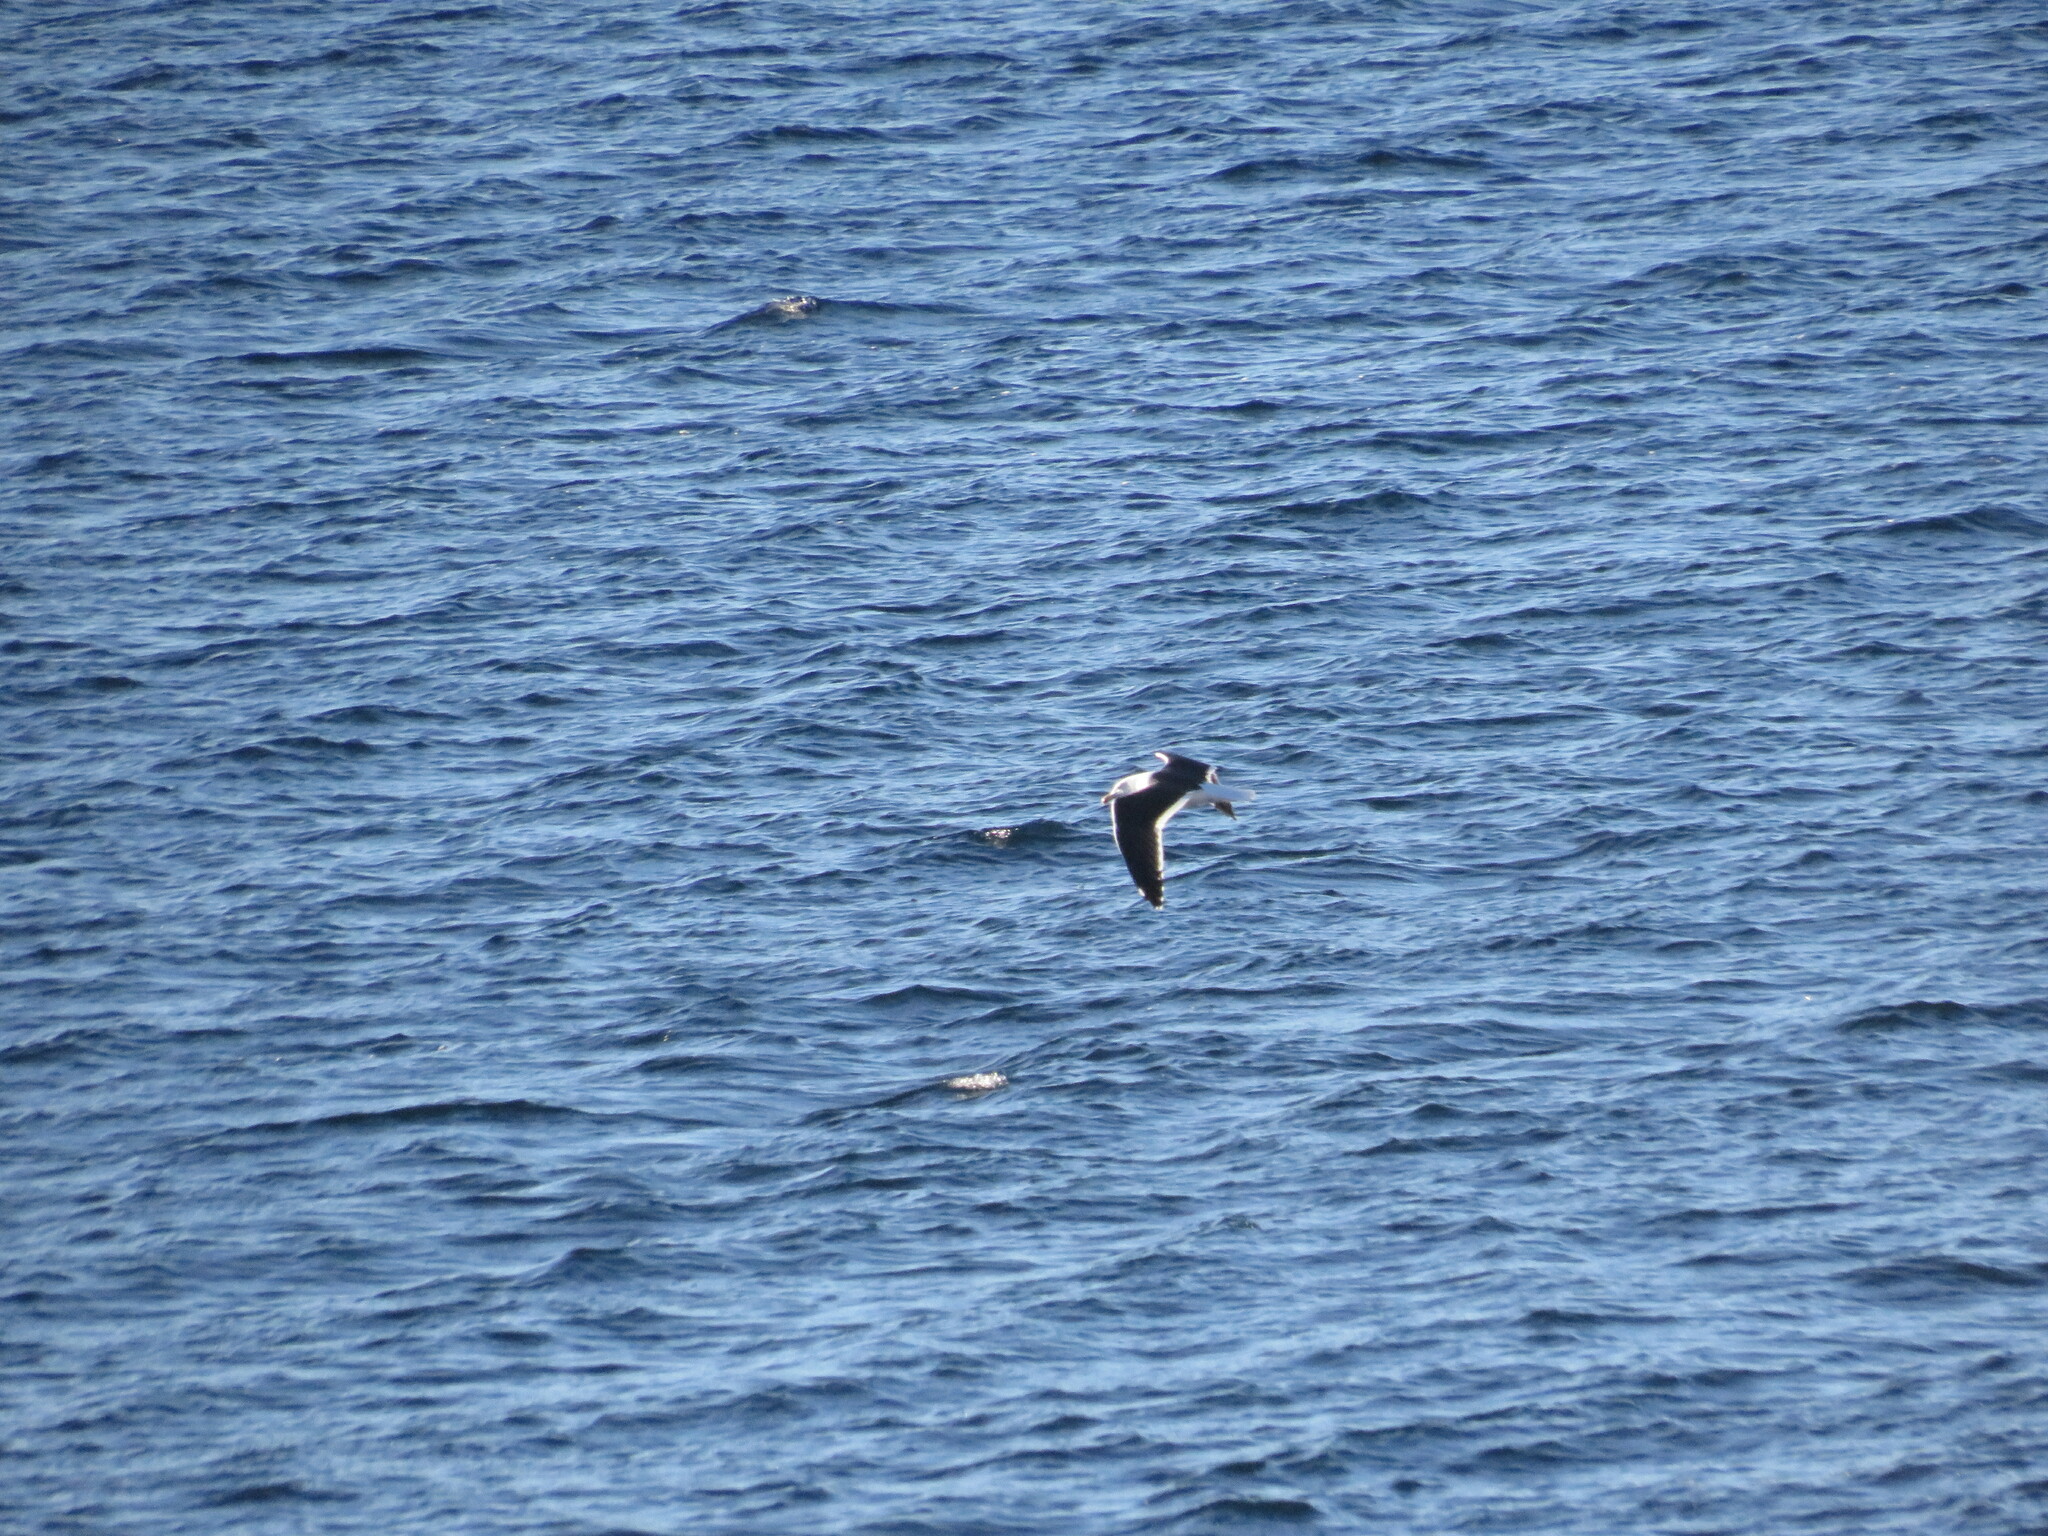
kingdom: Animalia
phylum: Chordata
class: Aves
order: Charadriiformes
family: Laridae
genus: Larus
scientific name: Larus dominicanus
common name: Kelp gull
